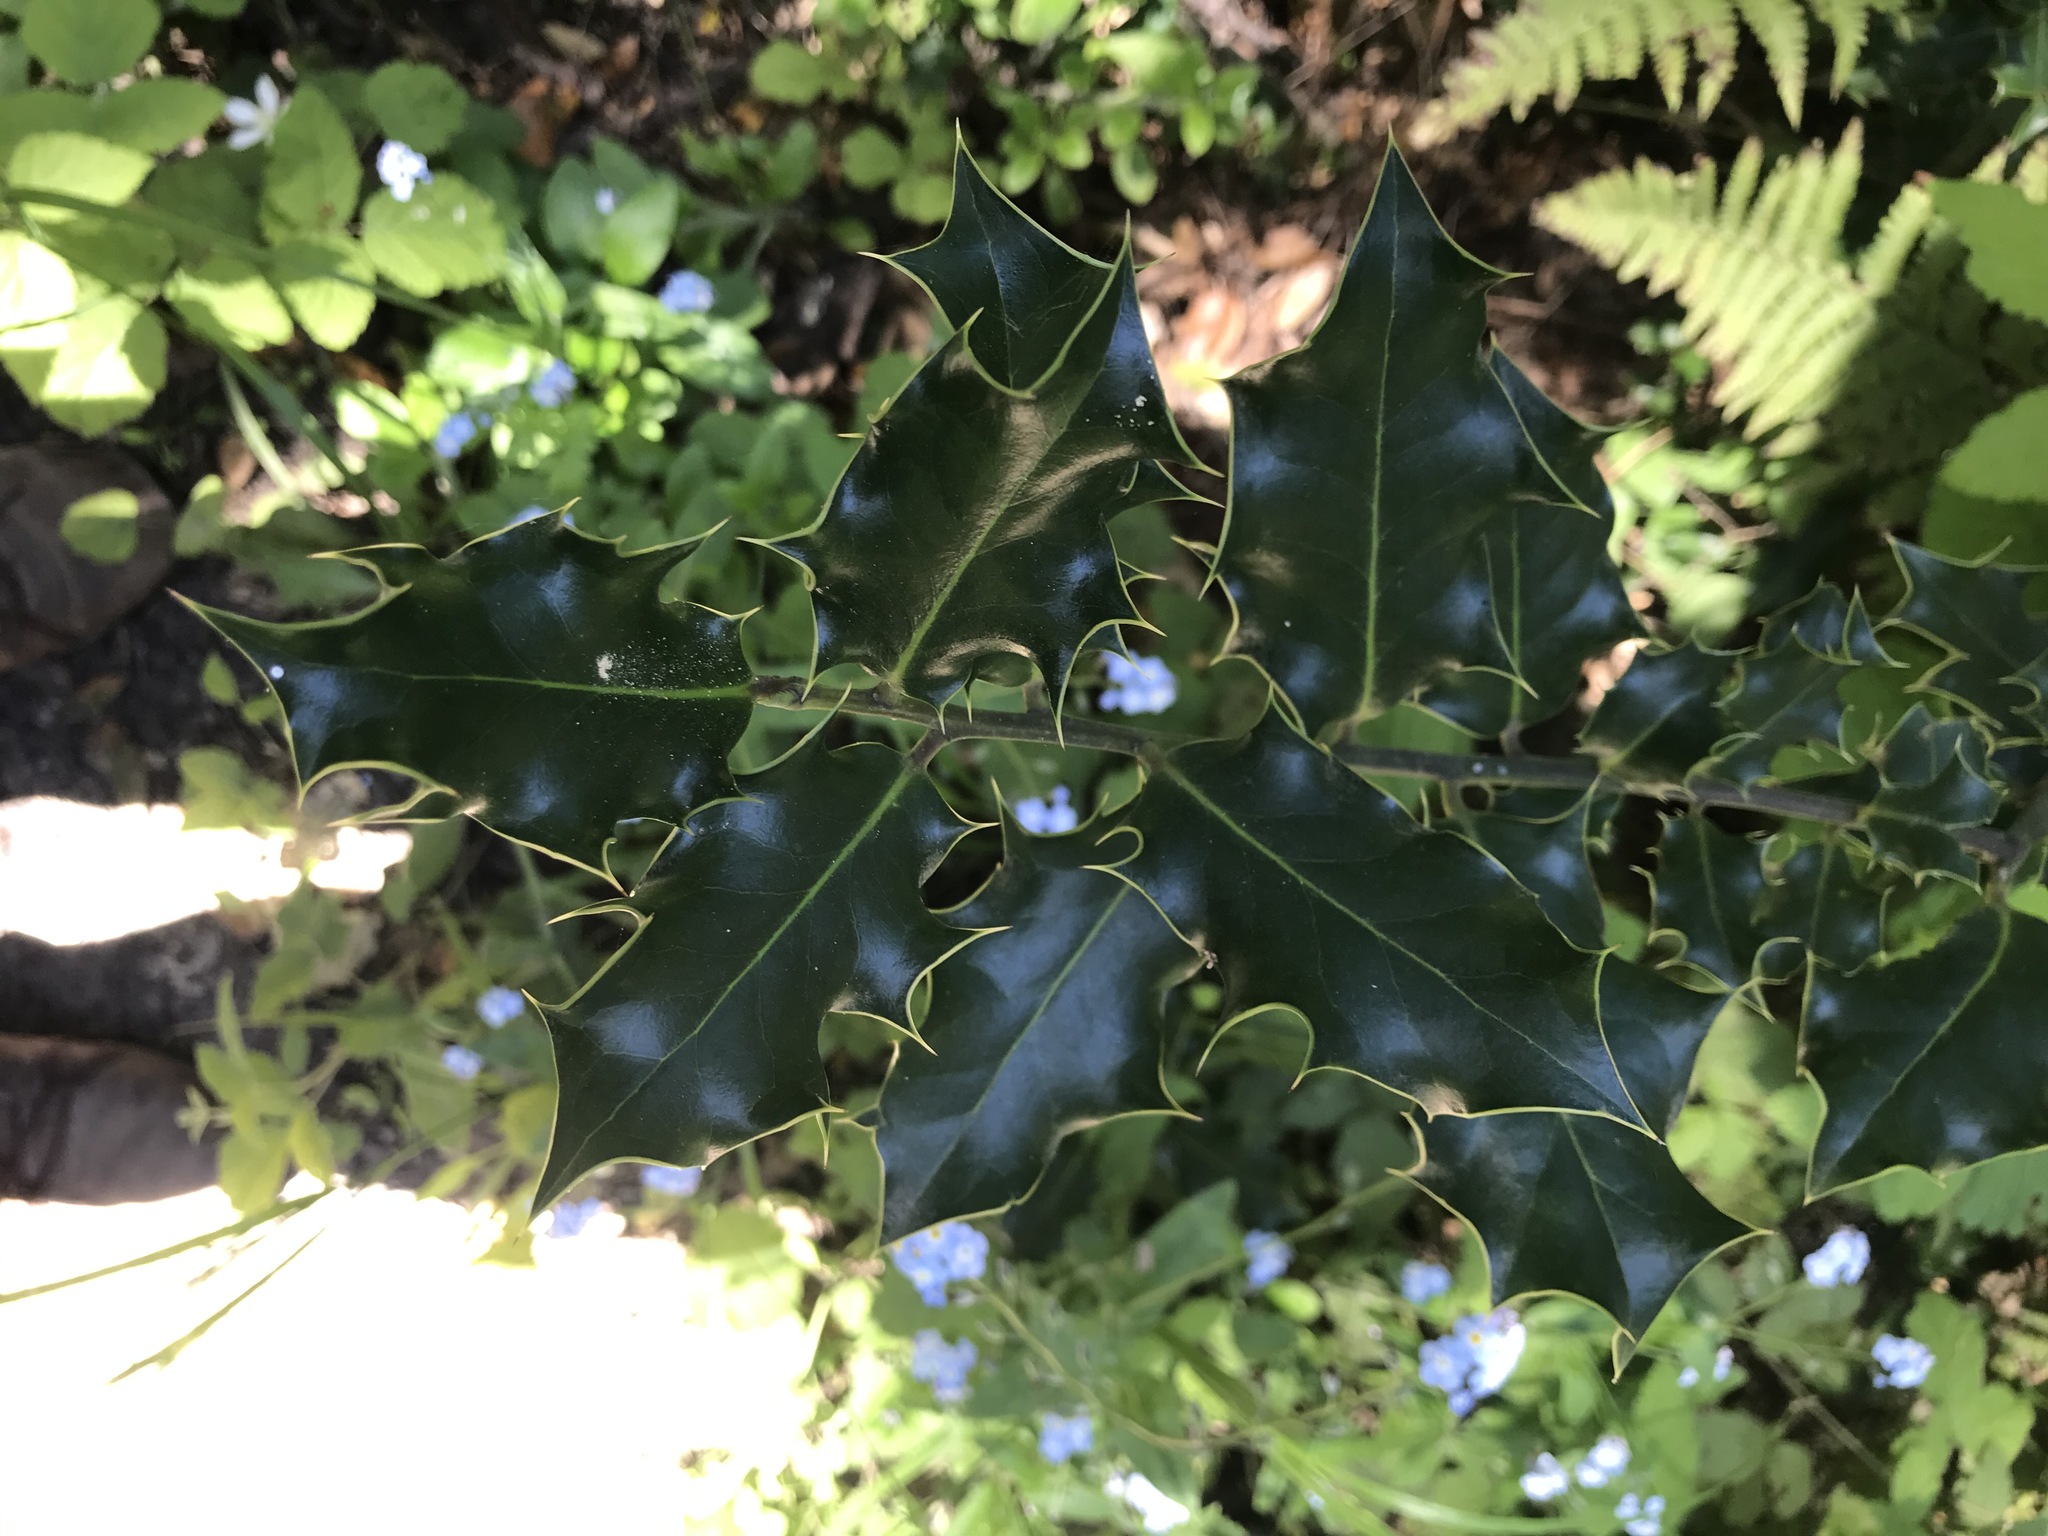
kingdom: Plantae
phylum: Tracheophyta
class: Magnoliopsida
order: Aquifoliales
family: Aquifoliaceae
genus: Ilex
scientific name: Ilex aquifolium
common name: English holly
